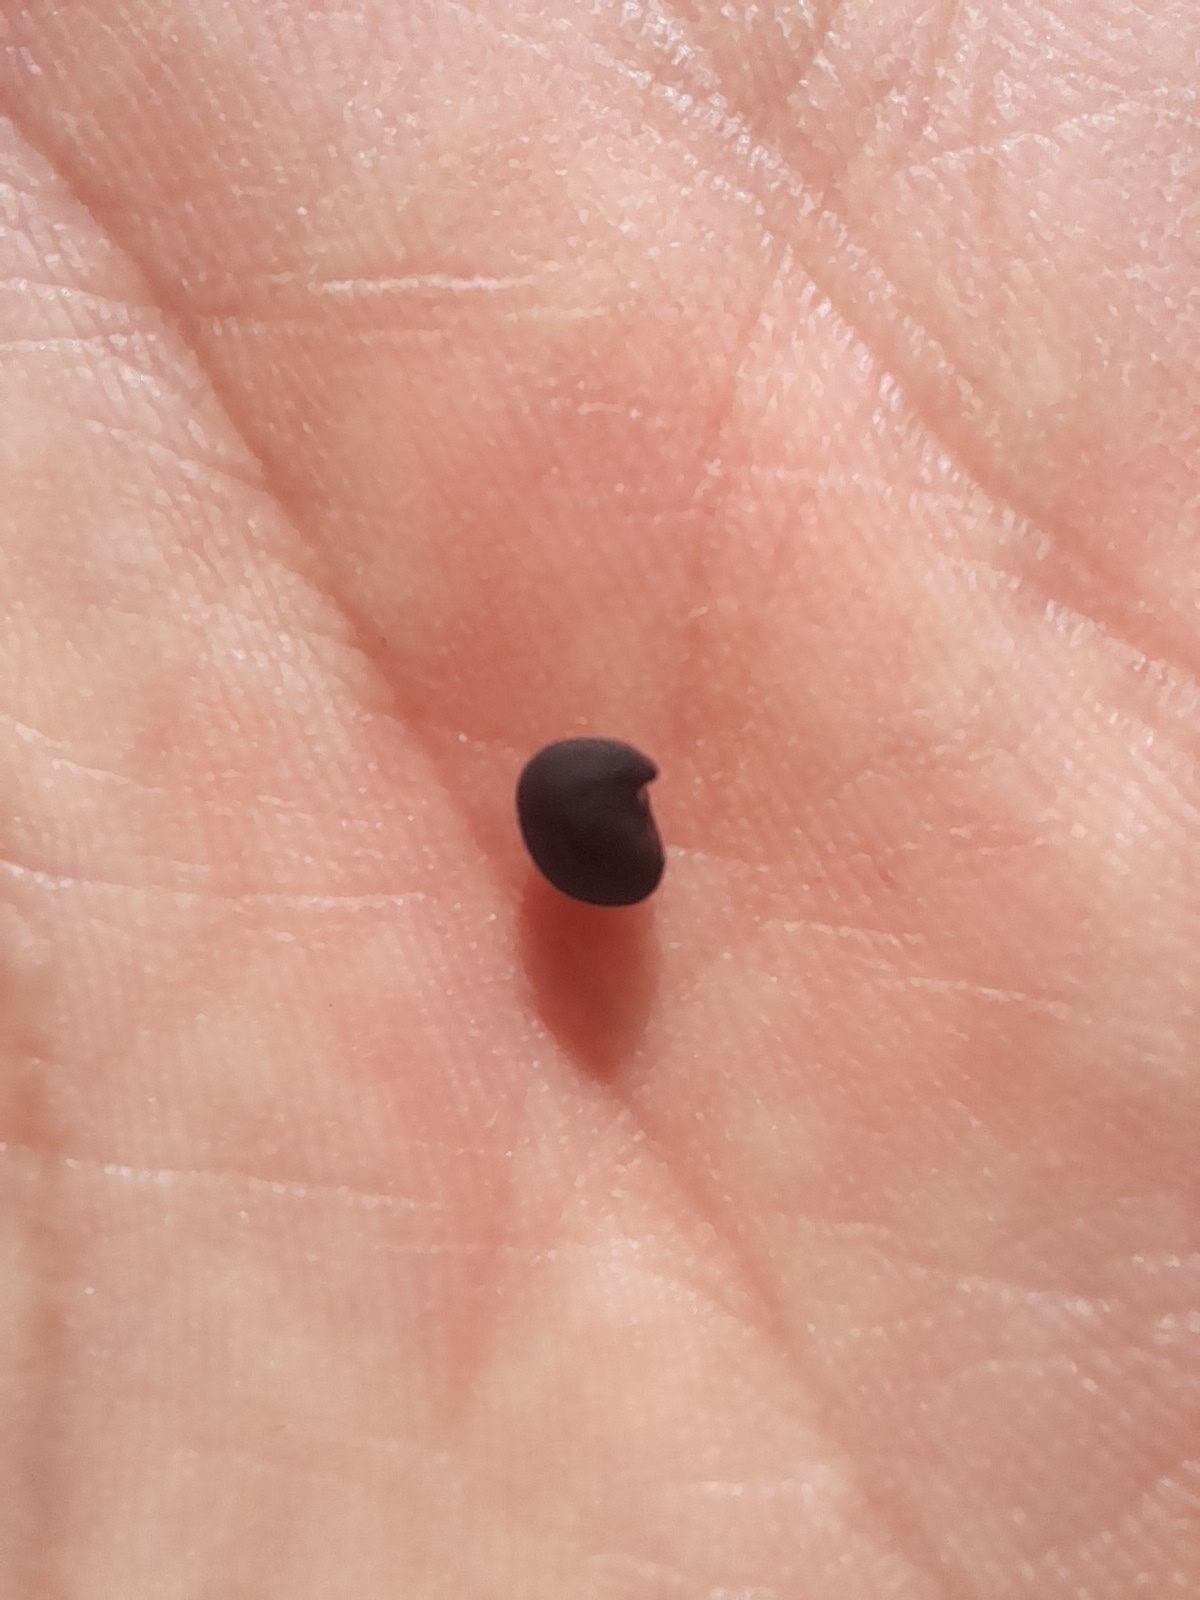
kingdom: Plantae
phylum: Tracheophyta
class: Magnoliopsida
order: Fabales
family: Fabaceae
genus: Laburnum
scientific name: Laburnum anagyroides
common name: Laburnum
